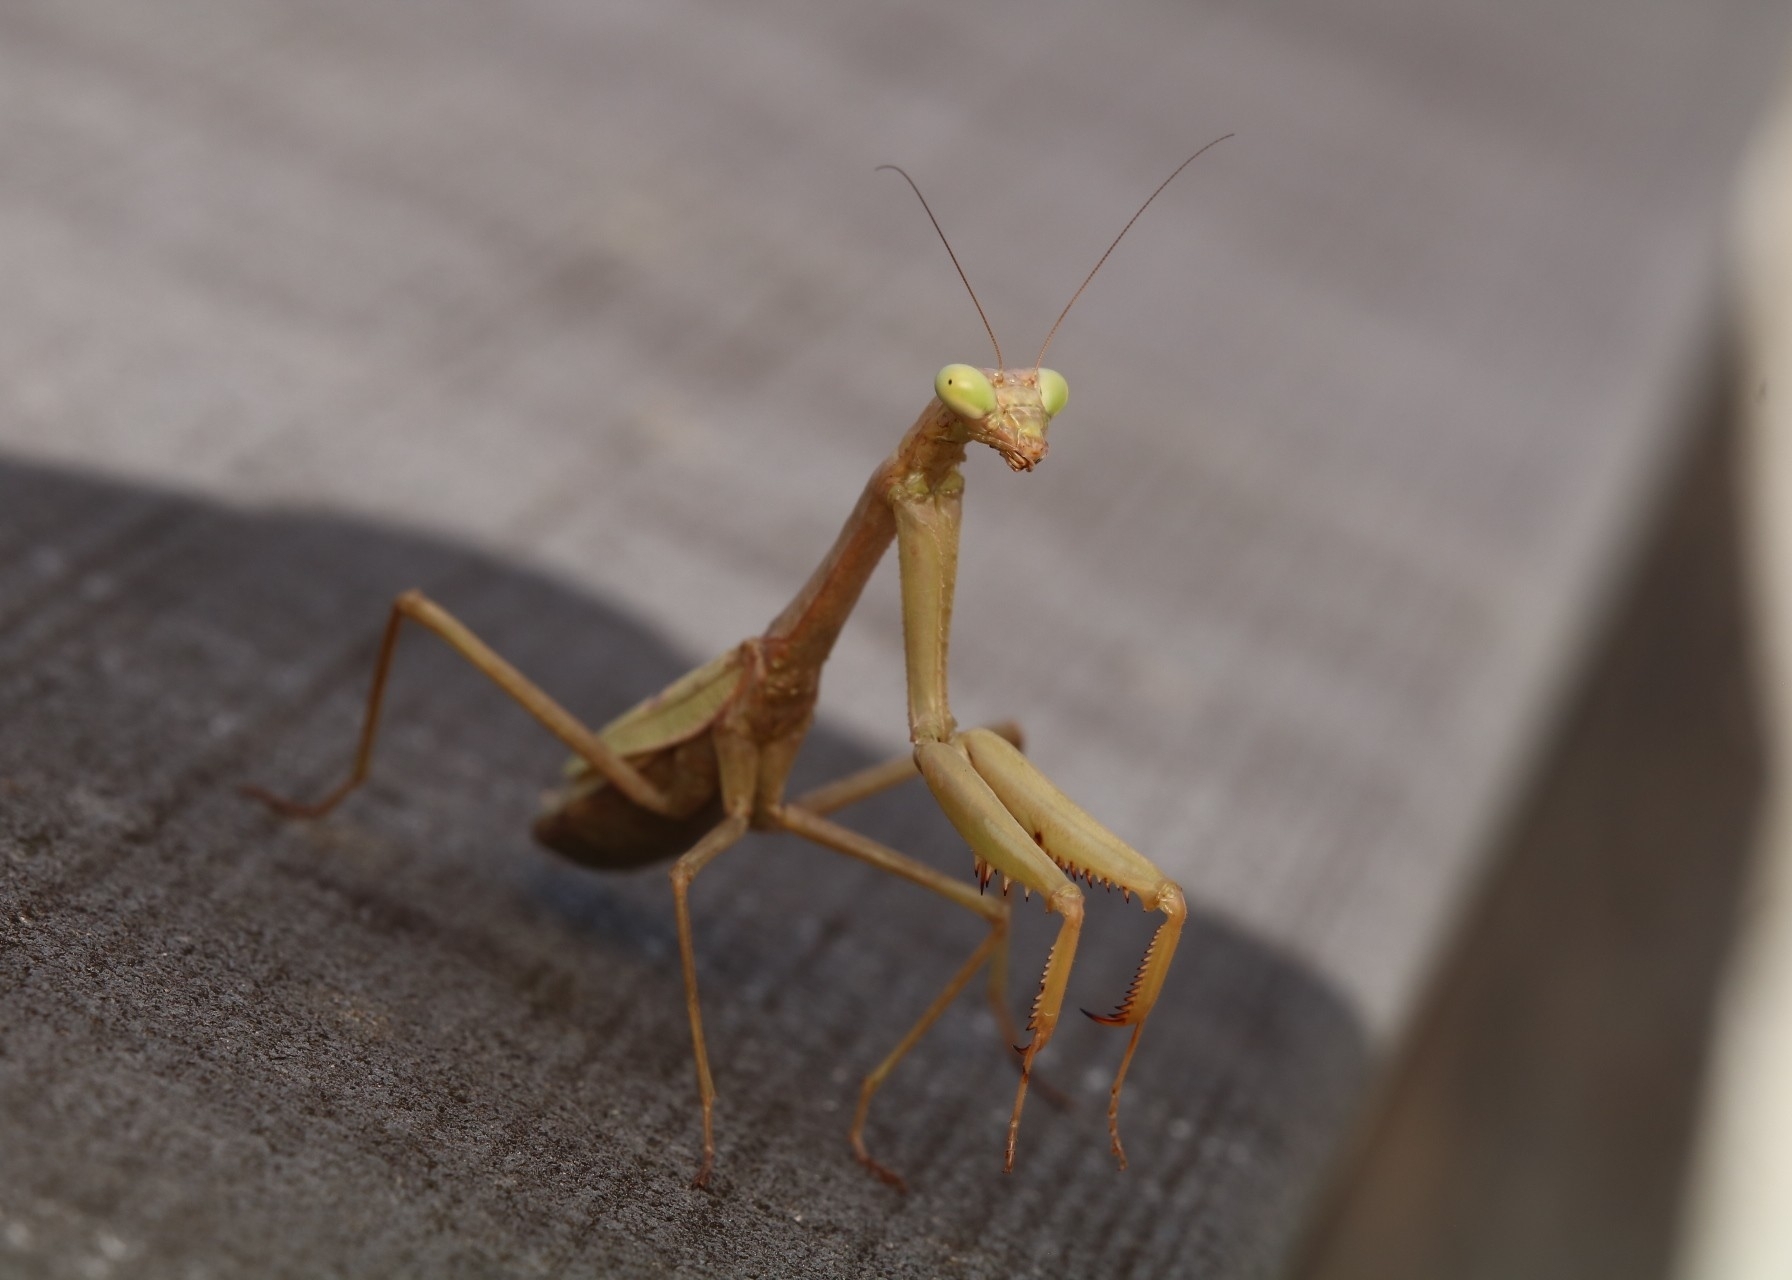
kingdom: Animalia
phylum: Arthropoda
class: Insecta
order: Mantodea
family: Mantidae
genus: Stagmomantis
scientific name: Stagmomantis carolina
